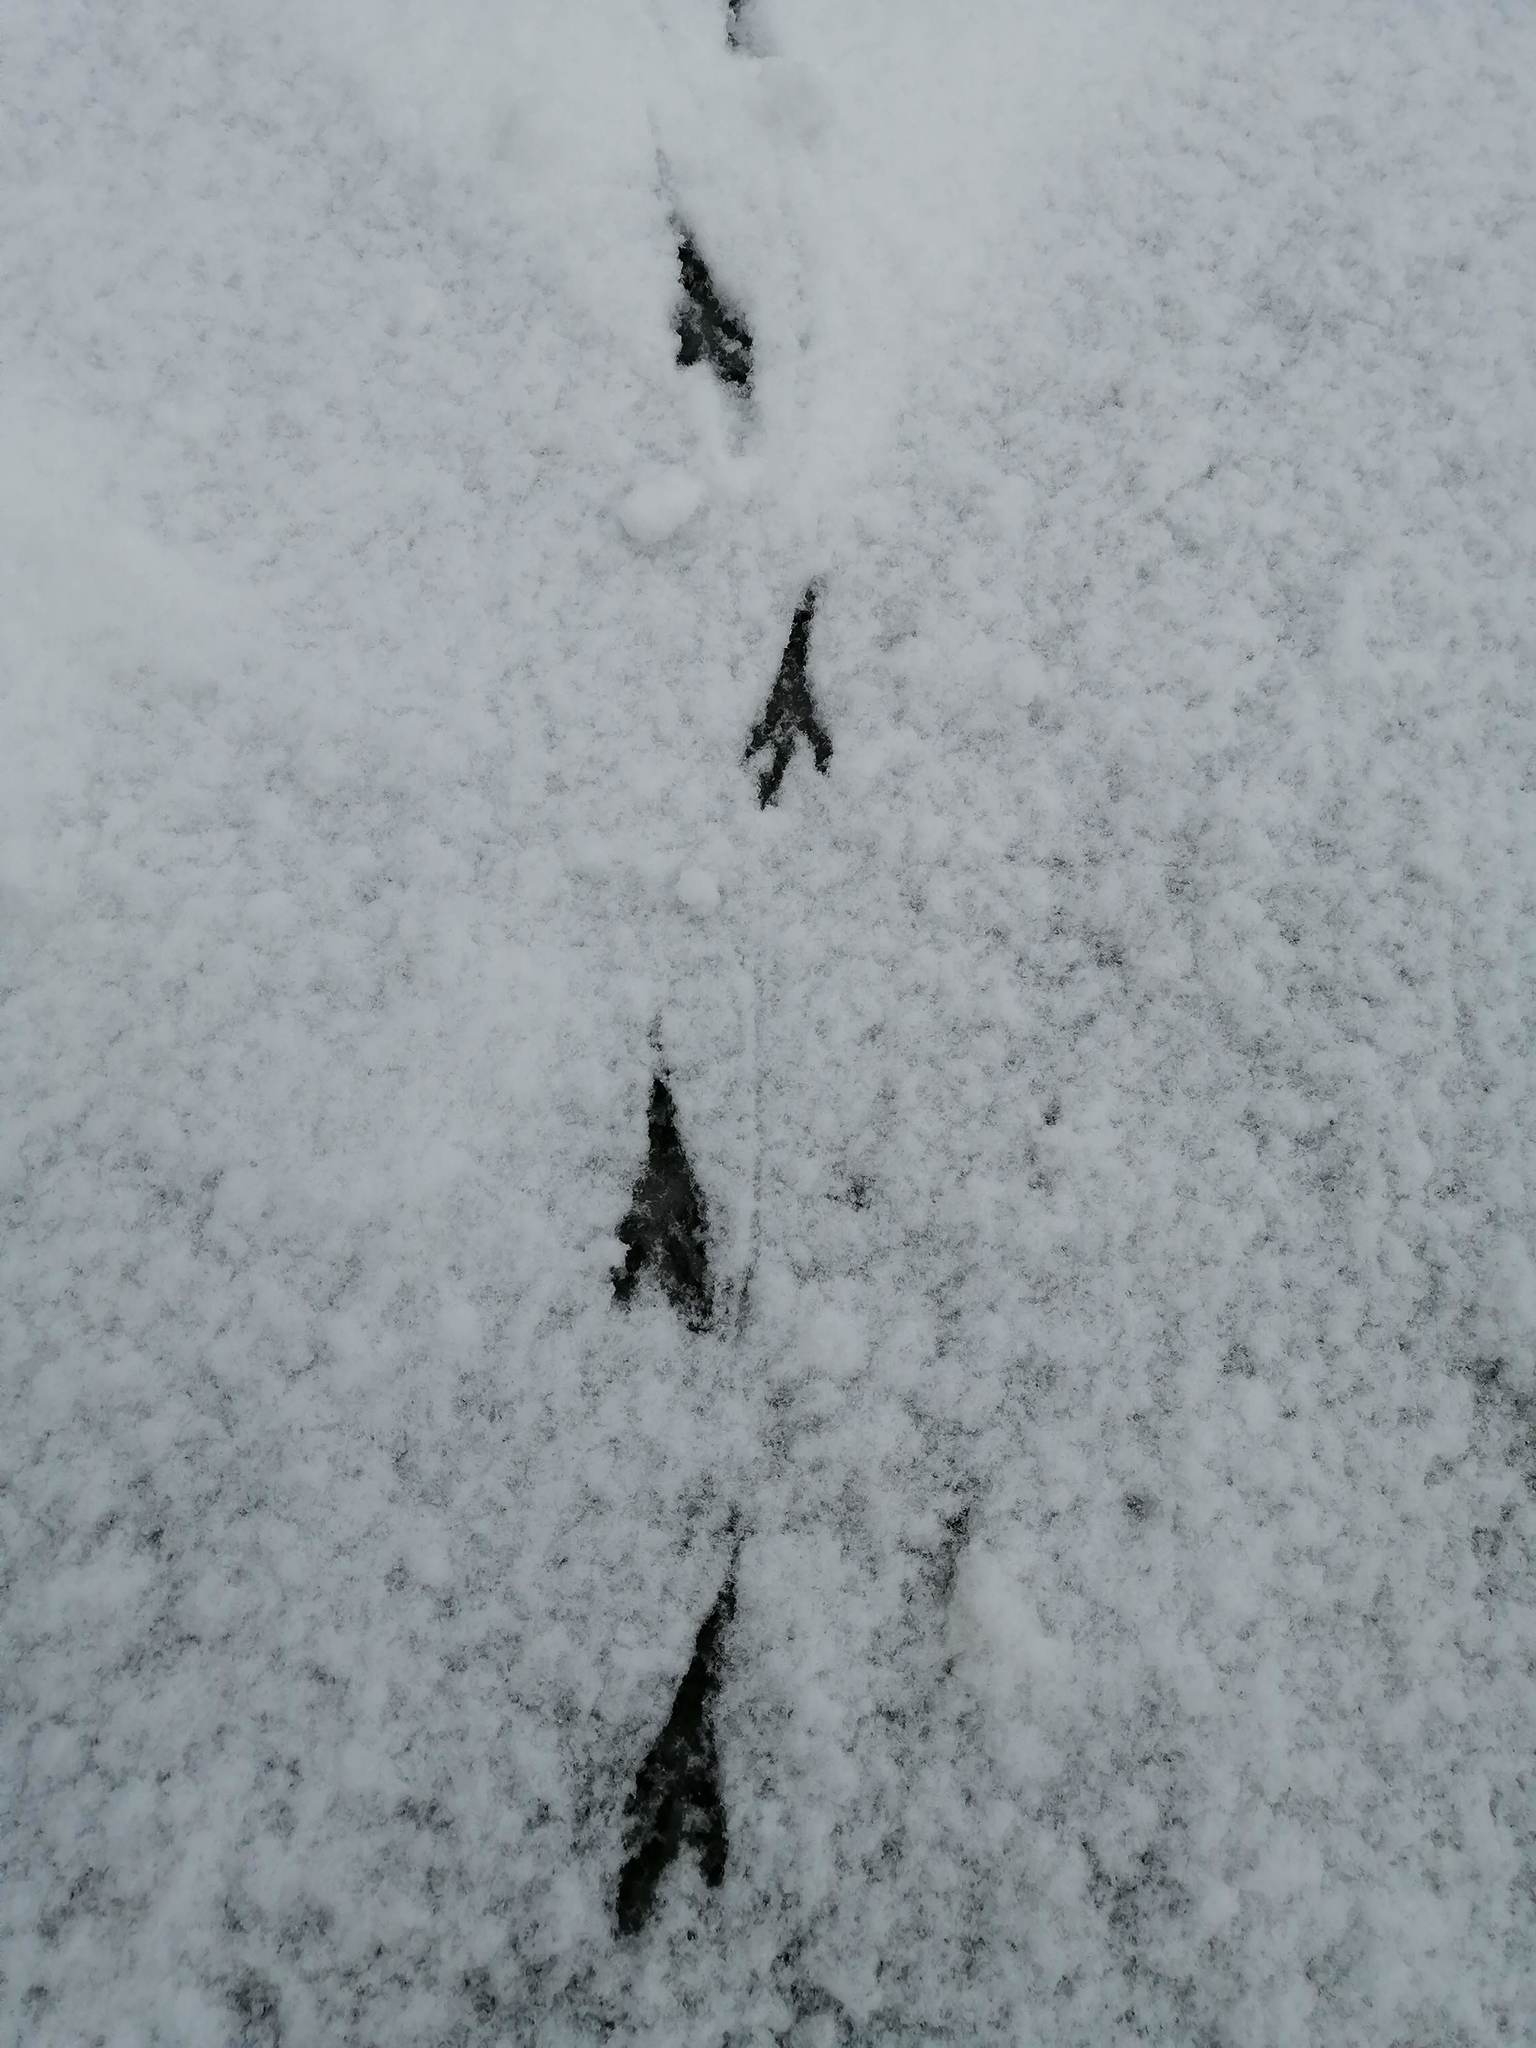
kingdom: Animalia
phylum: Chordata
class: Aves
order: Passeriformes
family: Corvidae
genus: Corvus
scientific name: Corvus cornix
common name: Hooded crow
